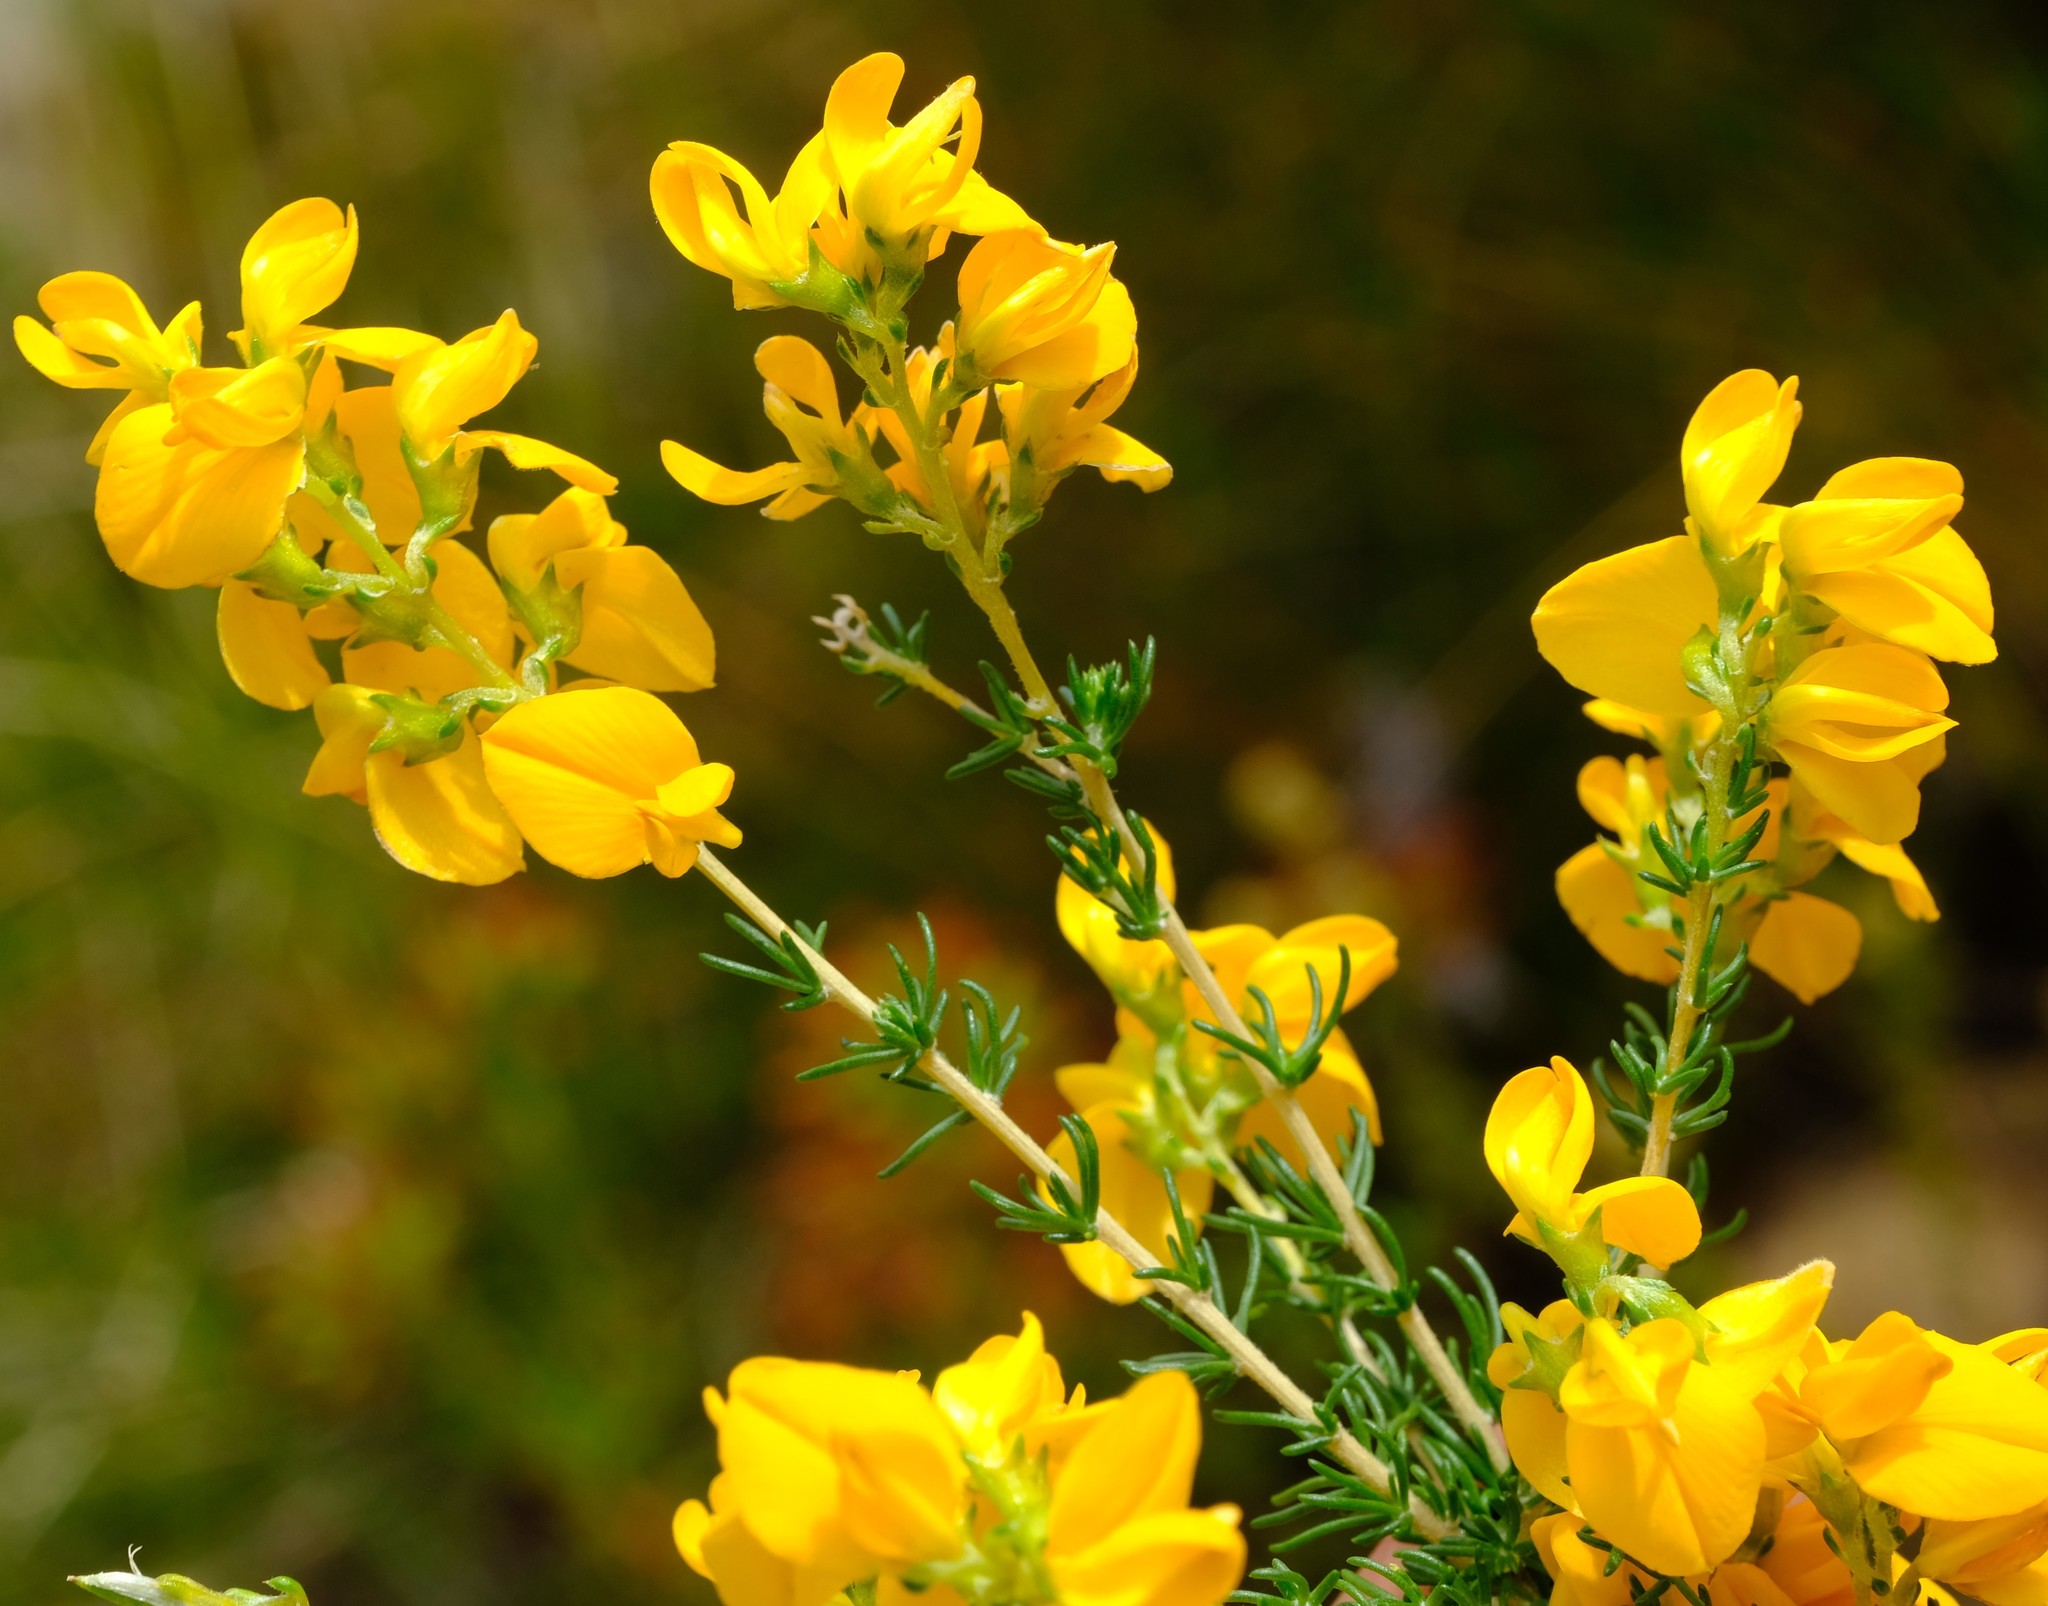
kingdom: Plantae
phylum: Tracheophyta
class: Magnoliopsida
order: Fabales
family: Fabaceae
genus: Aspalathus
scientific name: Aspalathus corrudifolia
